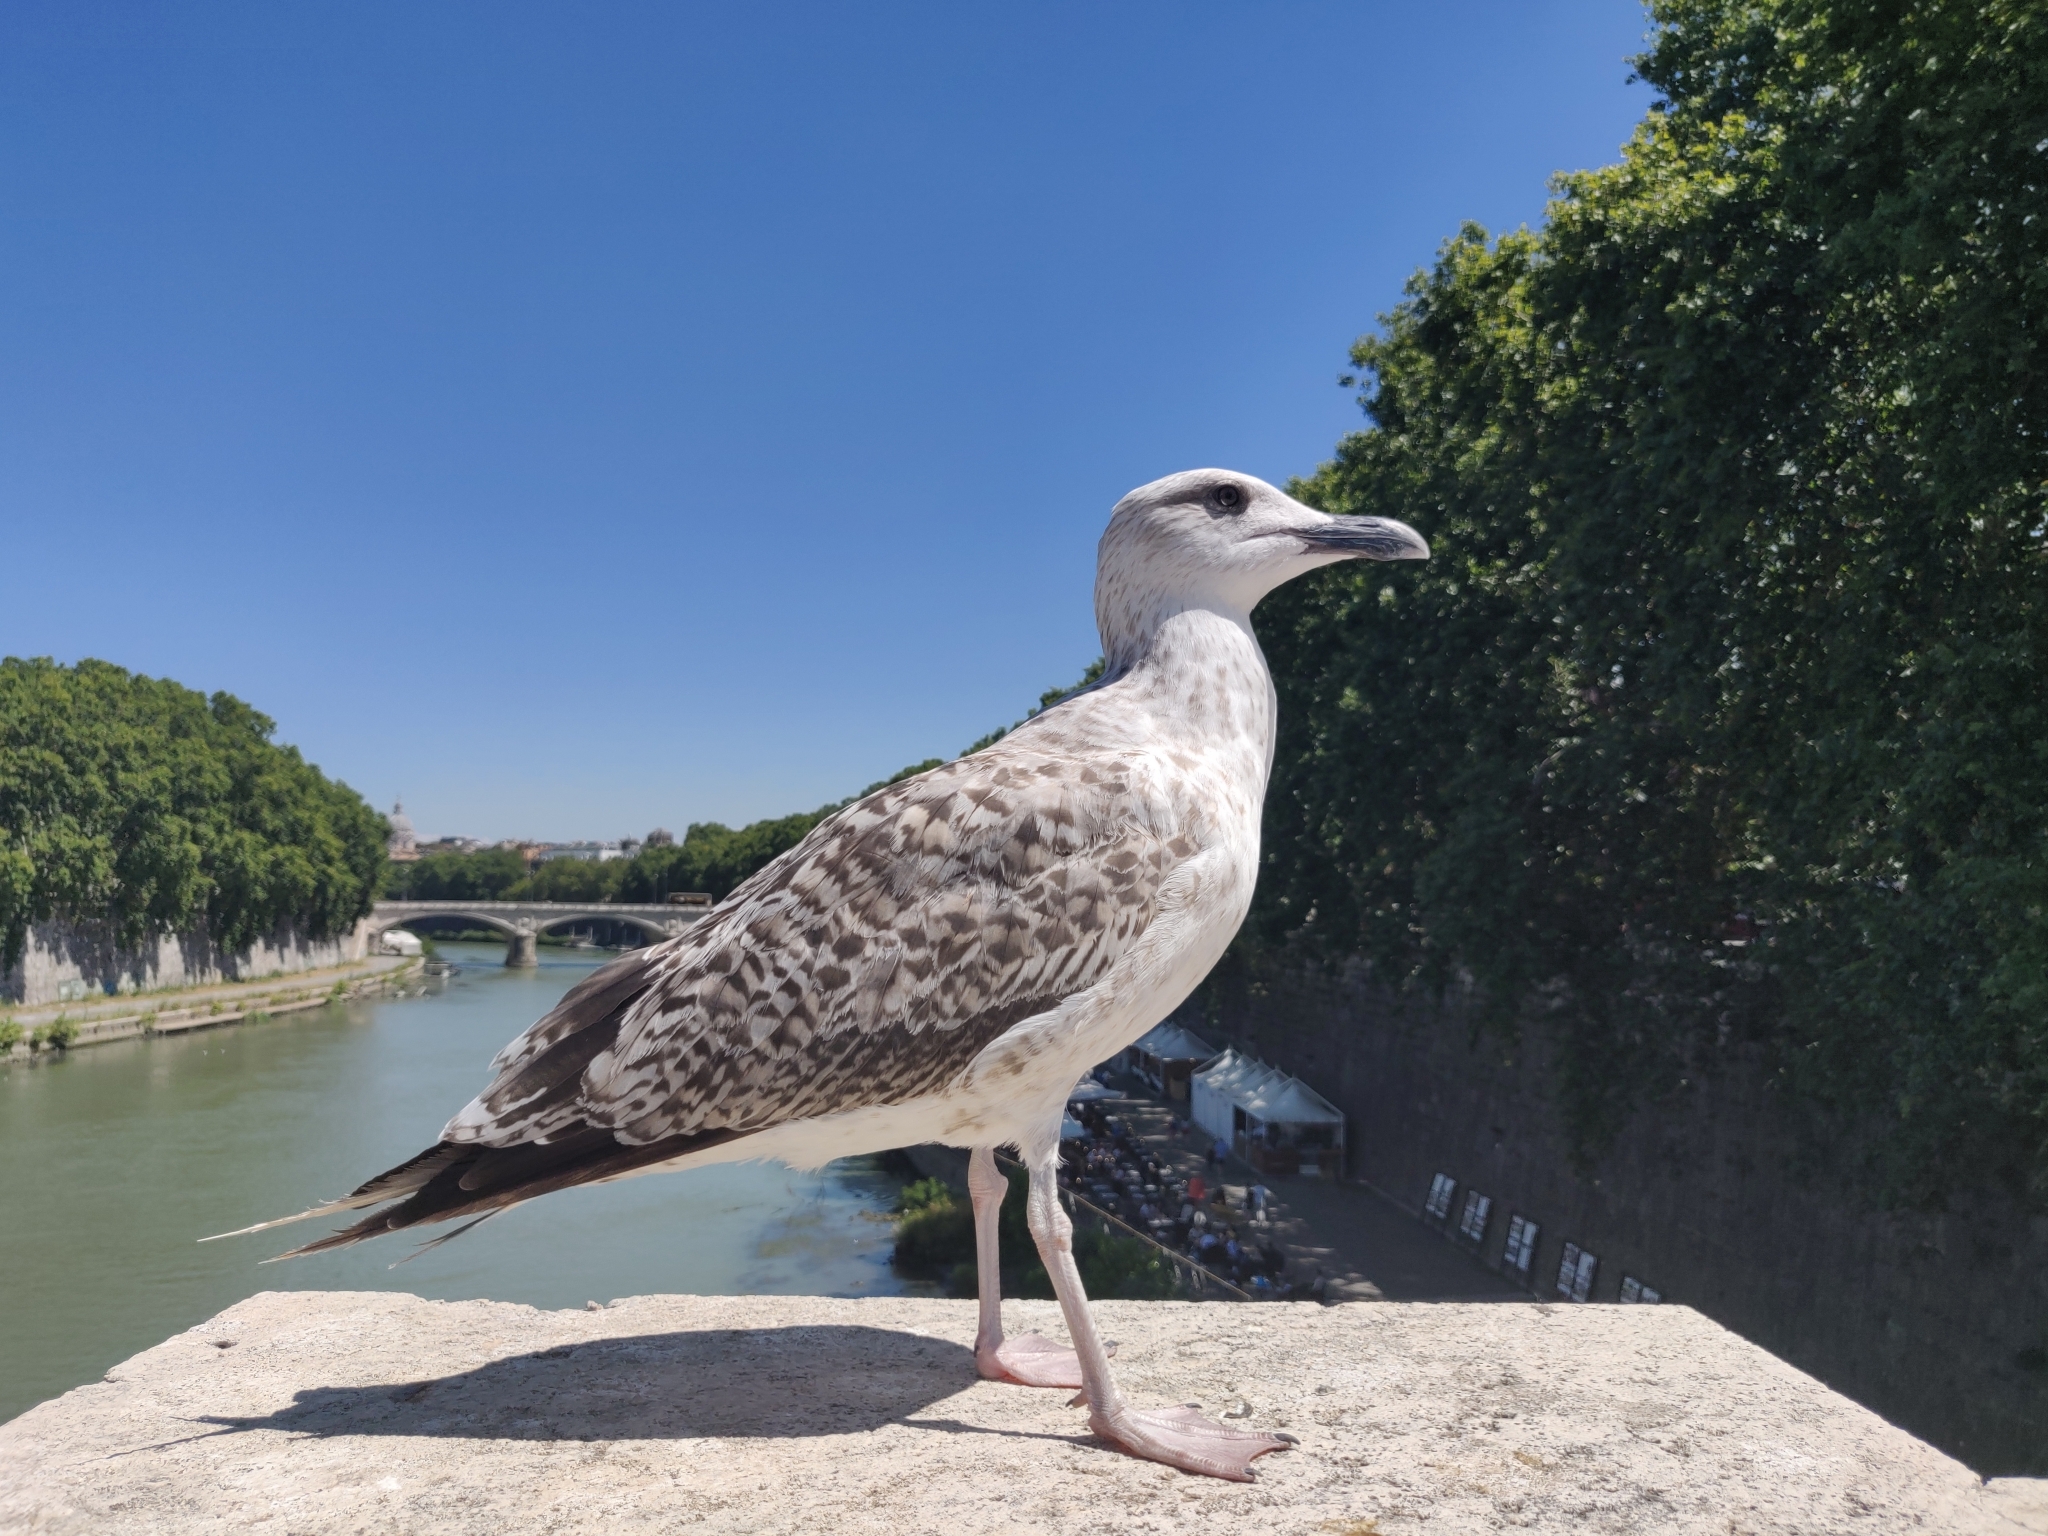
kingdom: Animalia
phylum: Chordata
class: Aves
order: Charadriiformes
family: Laridae
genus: Larus
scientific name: Larus michahellis
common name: Yellow-legged gull
